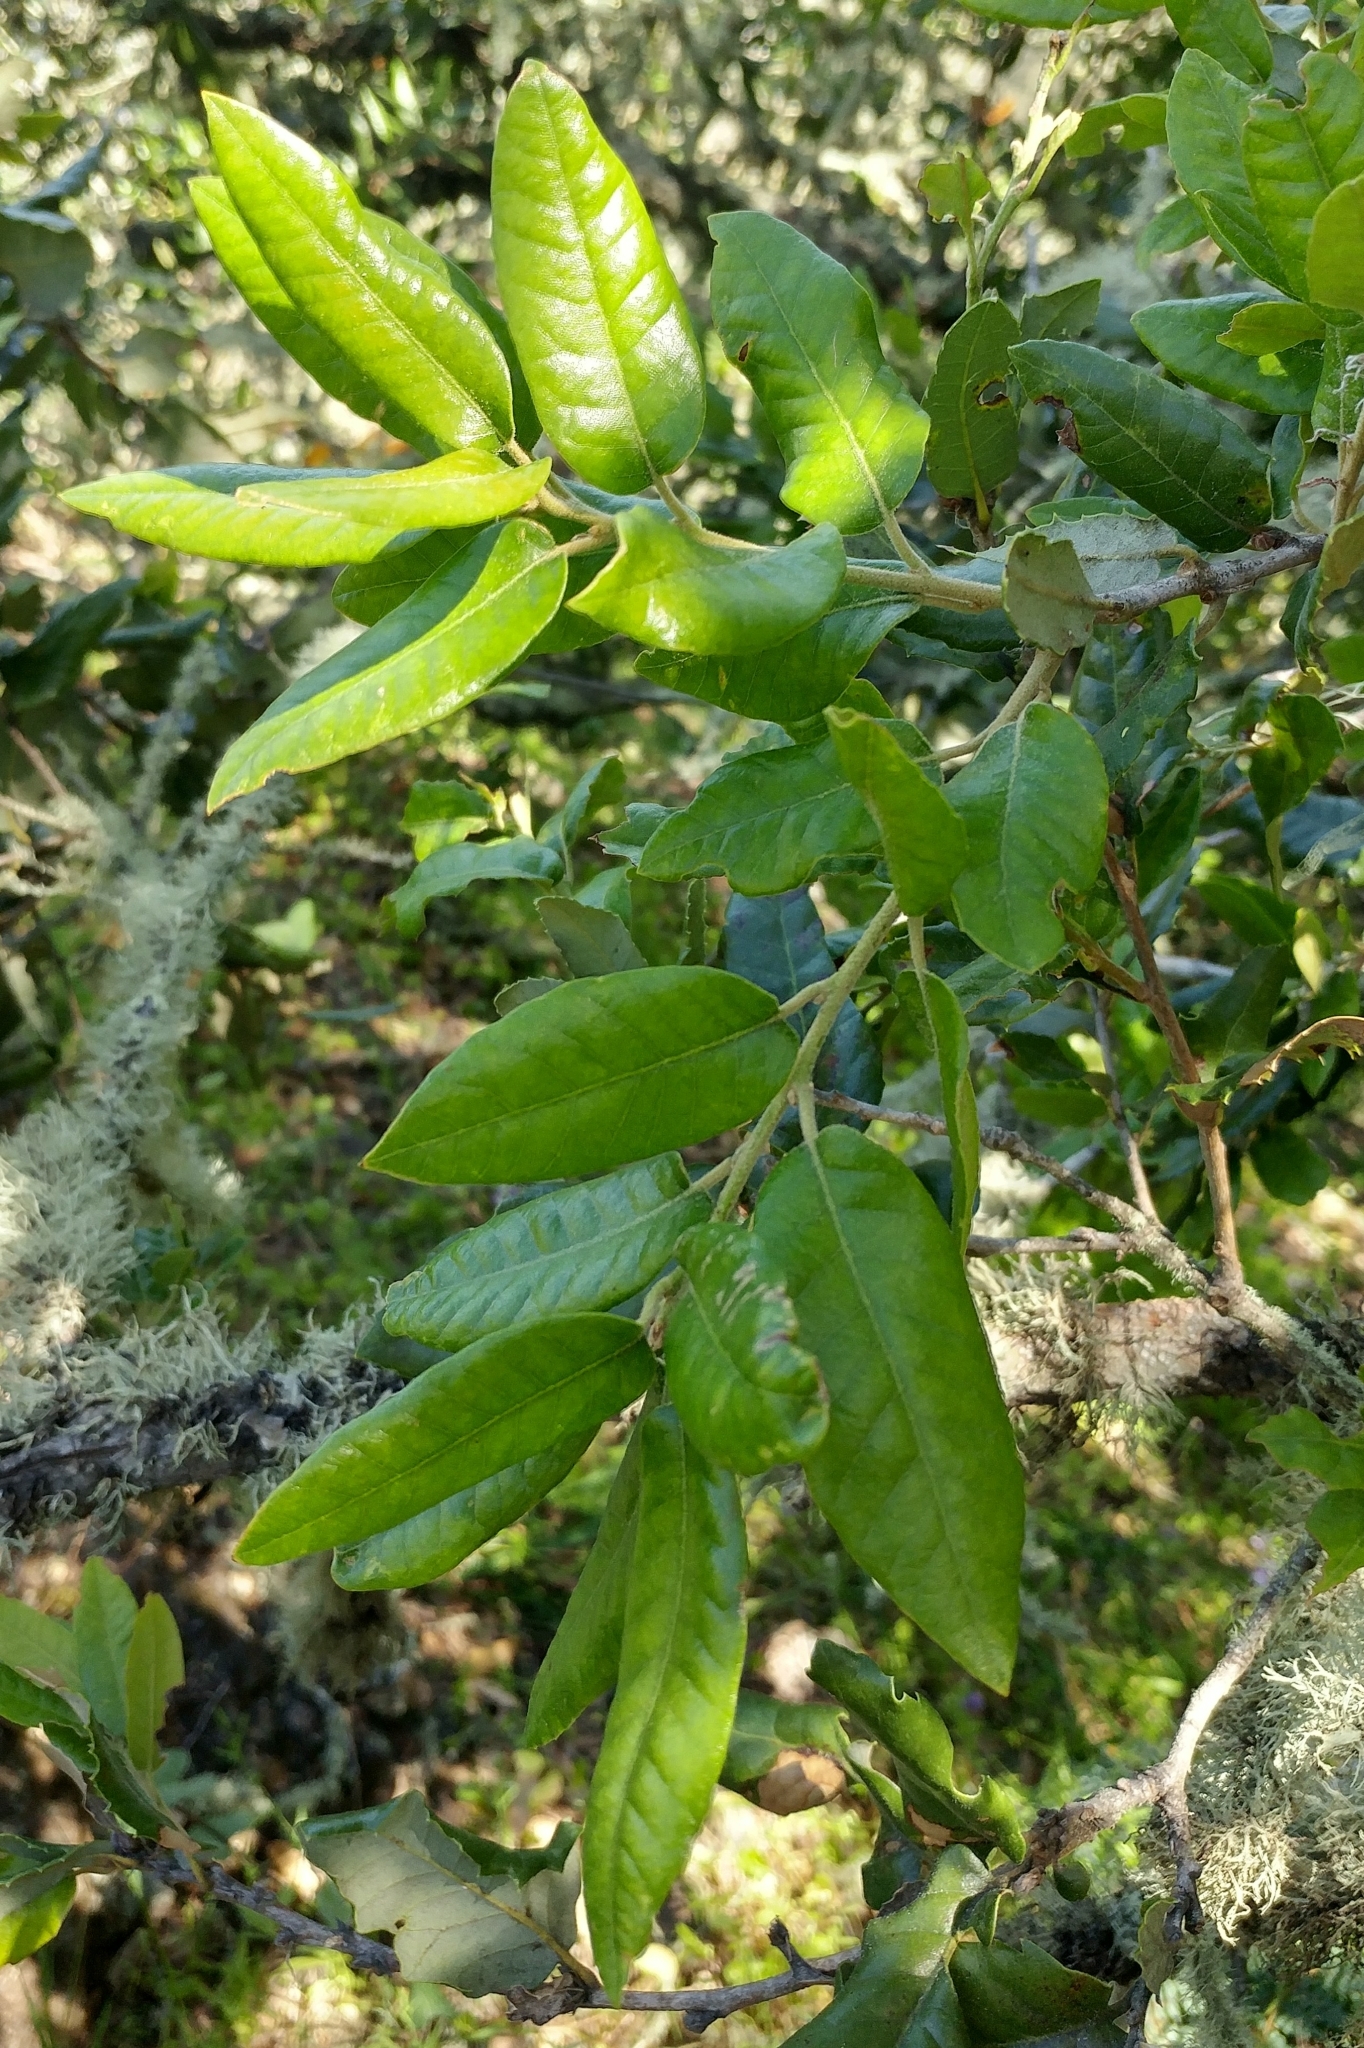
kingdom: Plantae
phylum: Tracheophyta
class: Magnoliopsida
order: Fagales
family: Fagaceae
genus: Quercus
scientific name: Quercus tomentella
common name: Island oak
